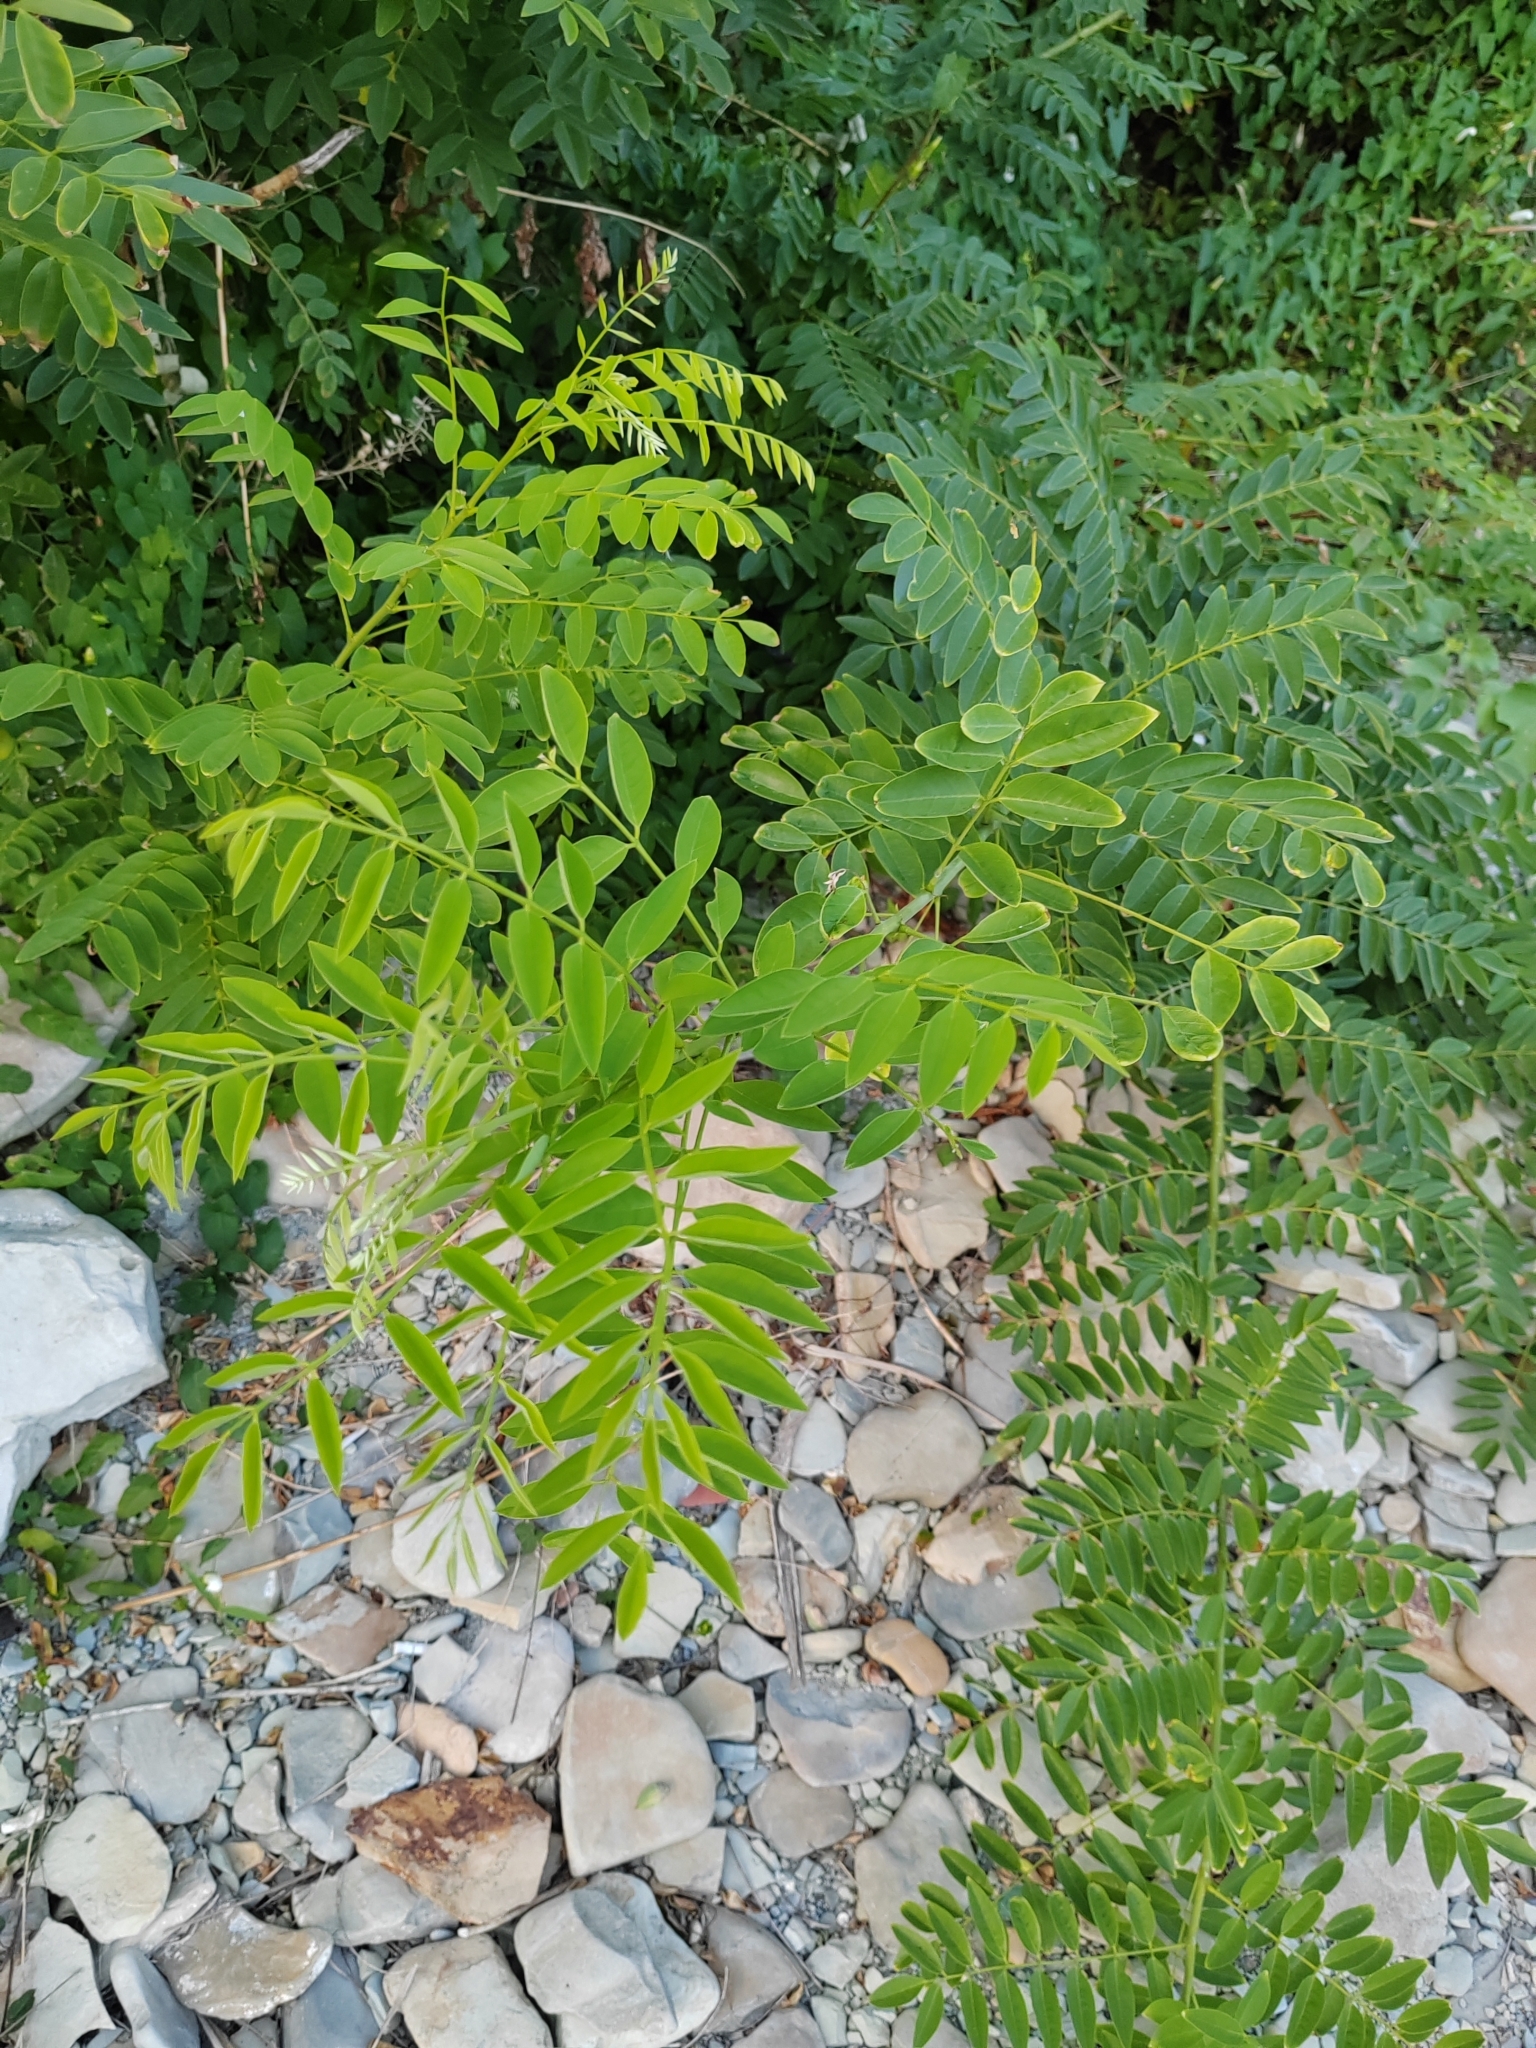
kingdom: Plantae
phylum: Tracheophyta
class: Magnoliopsida
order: Fabales
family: Fabaceae
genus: Robinia
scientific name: Robinia pseudoacacia
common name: Black locust
